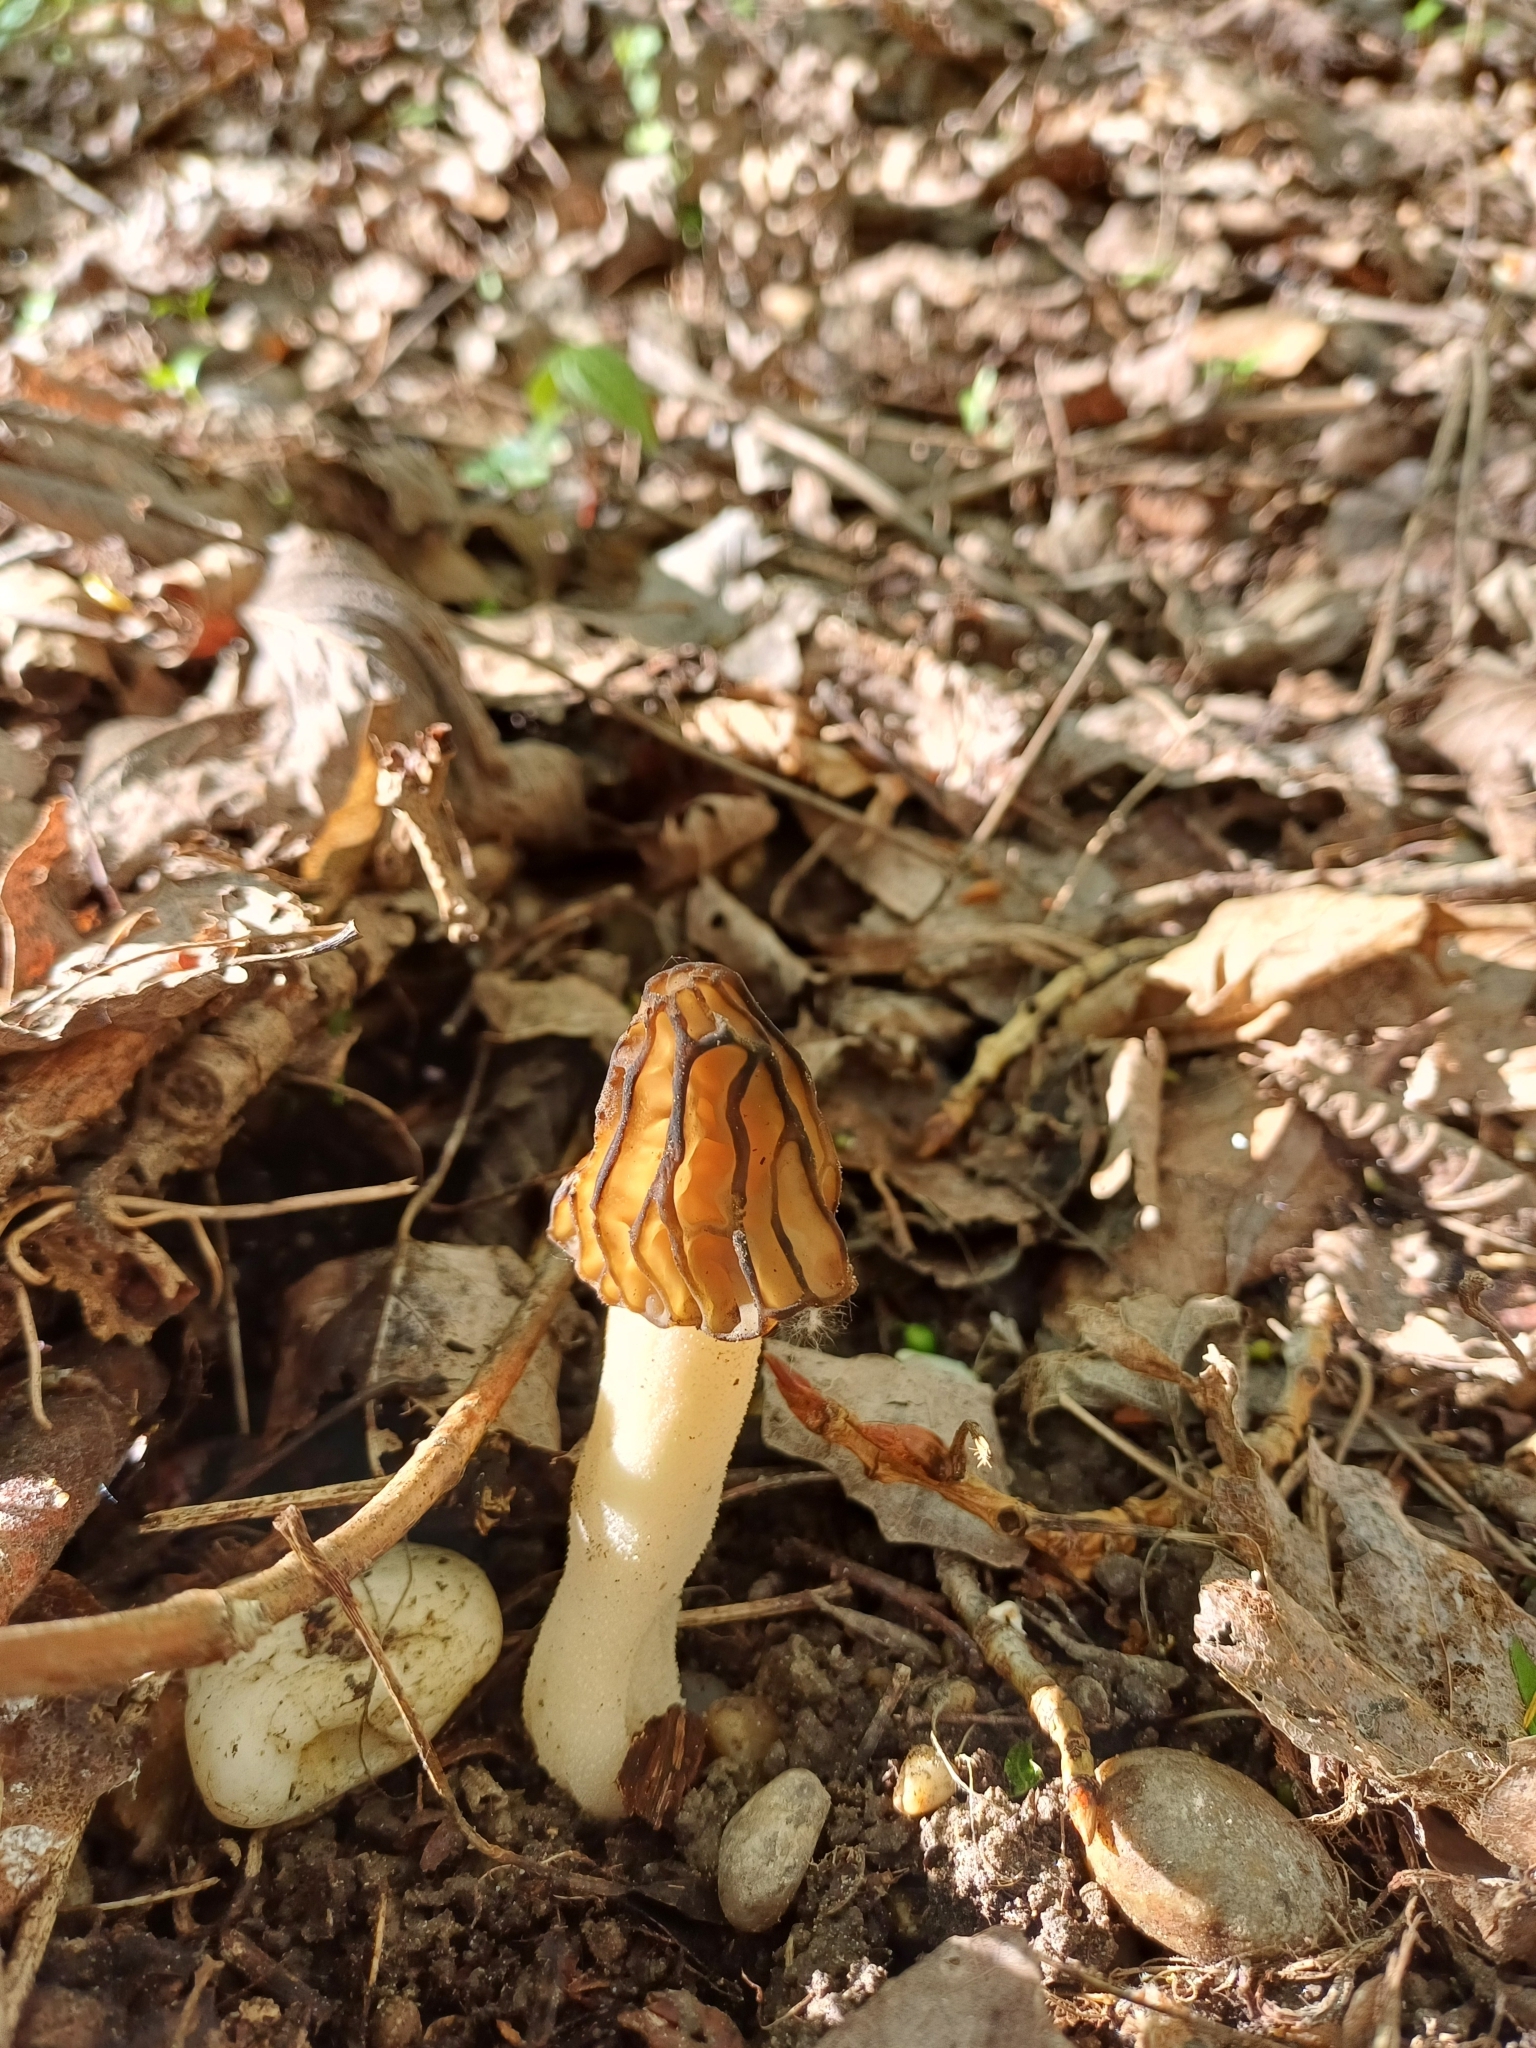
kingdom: Fungi
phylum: Ascomycota
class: Pezizomycetes
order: Pezizales
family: Morchellaceae
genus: Morchella
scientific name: Morchella semilibera
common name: Semifree morel
